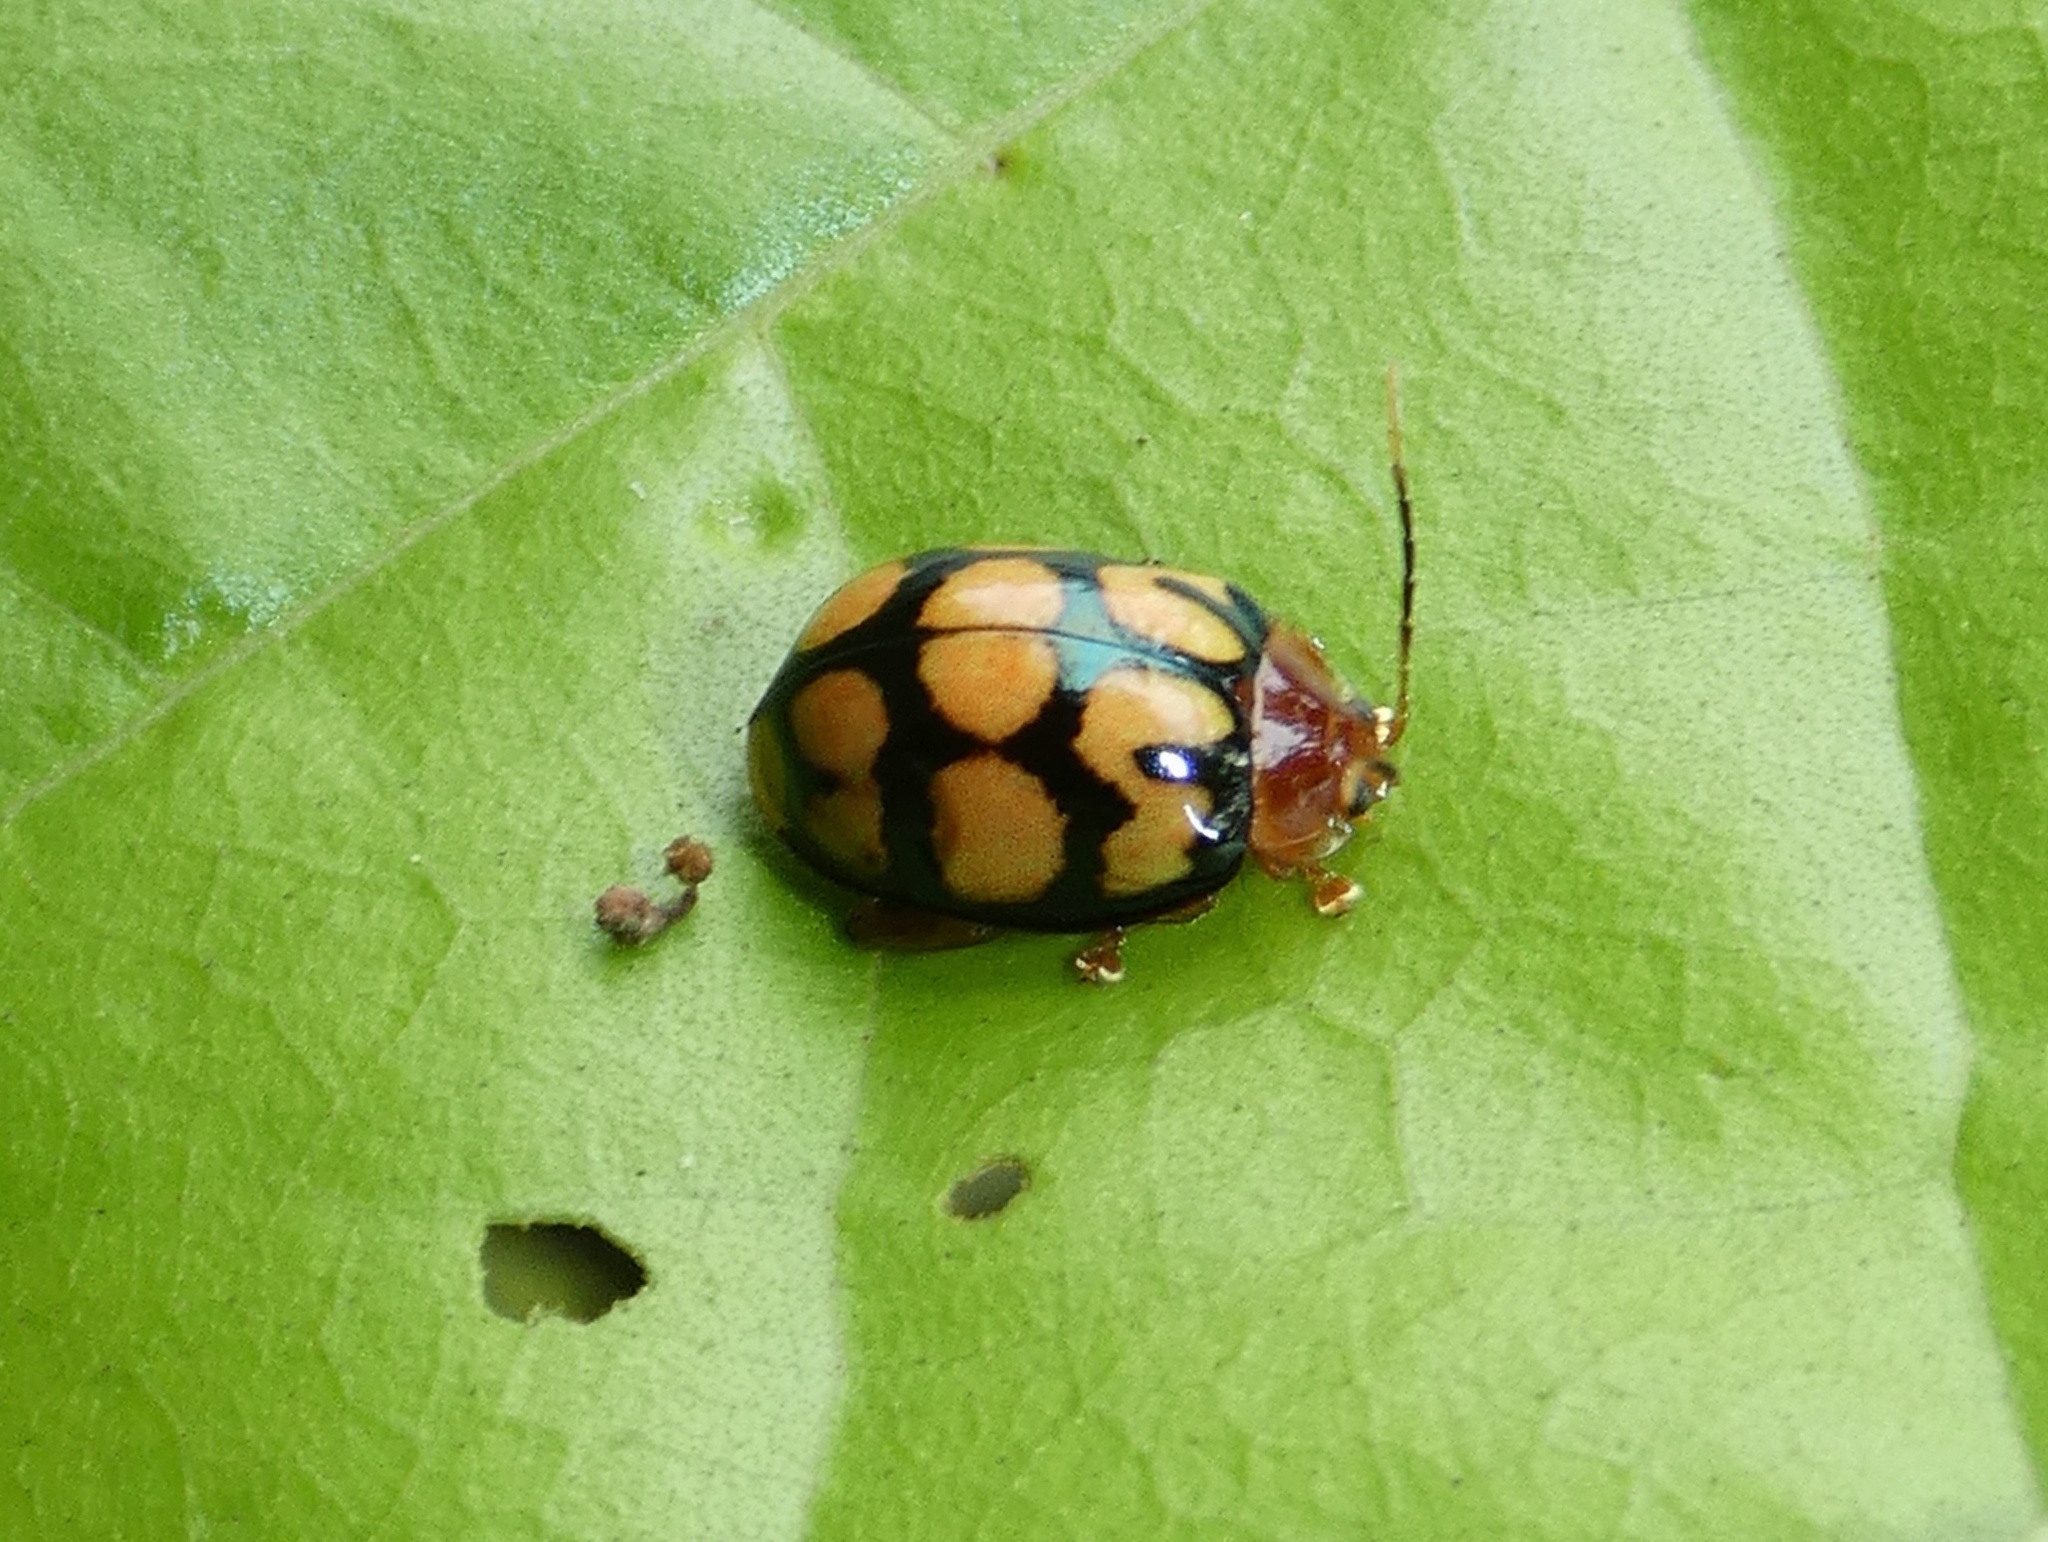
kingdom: Animalia
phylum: Arthropoda
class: Insecta
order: Coleoptera
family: Chrysomelidae
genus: Alagoasa
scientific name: Alagoasa
